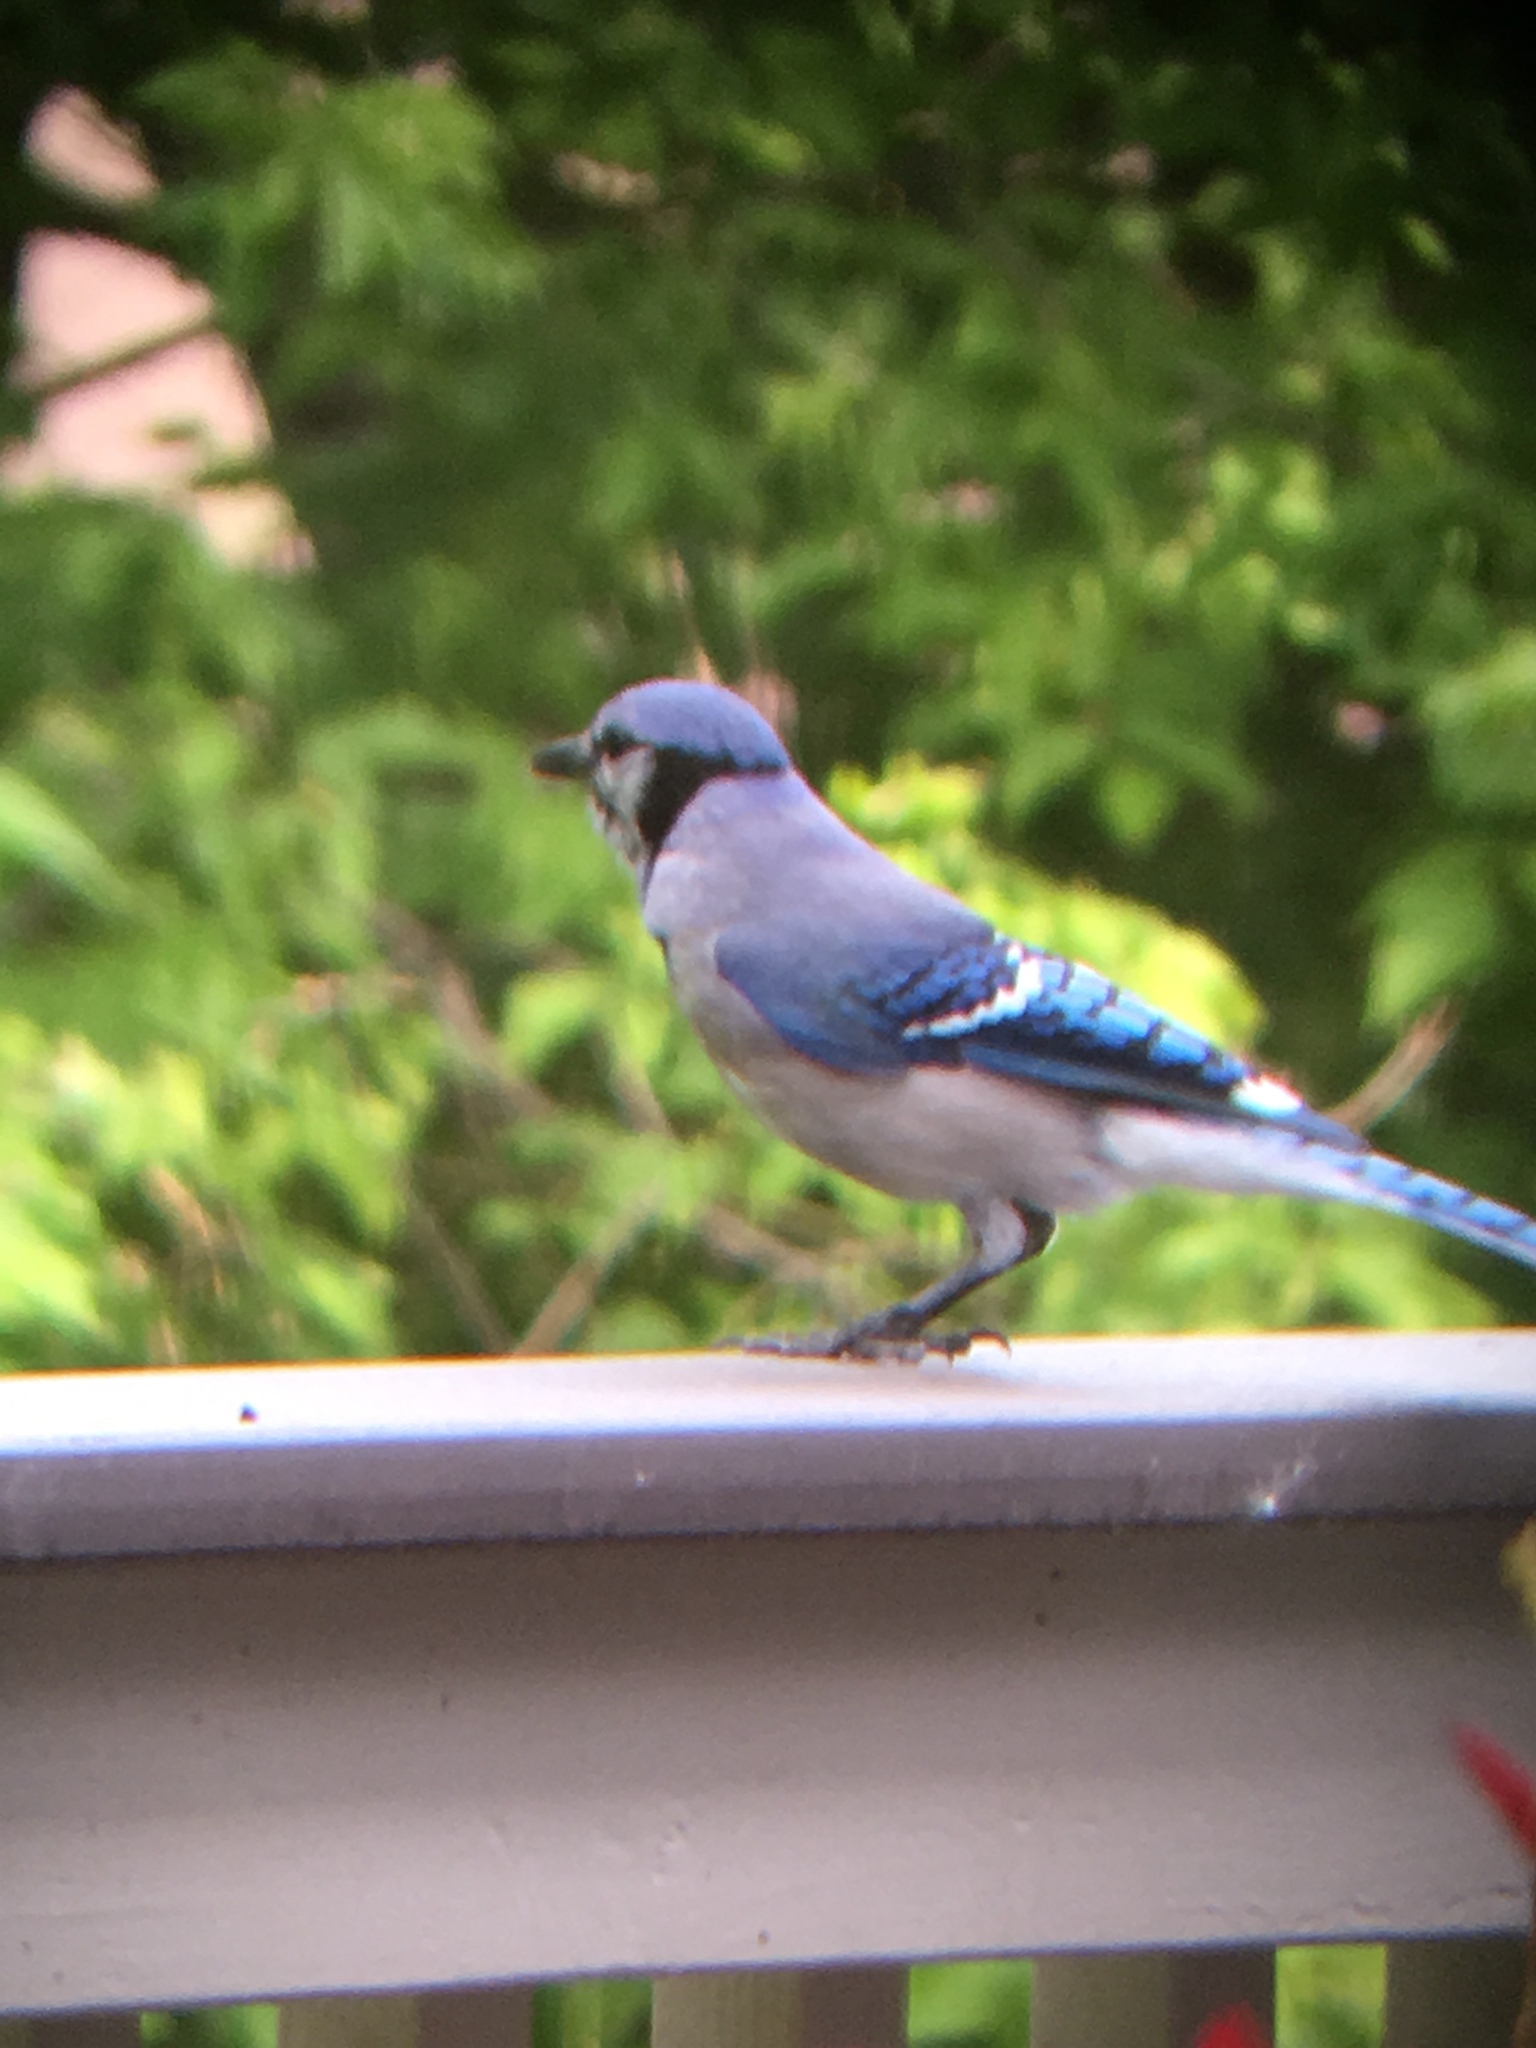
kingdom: Animalia
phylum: Chordata
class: Aves
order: Passeriformes
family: Corvidae
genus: Cyanocitta
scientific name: Cyanocitta cristata
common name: Blue jay
